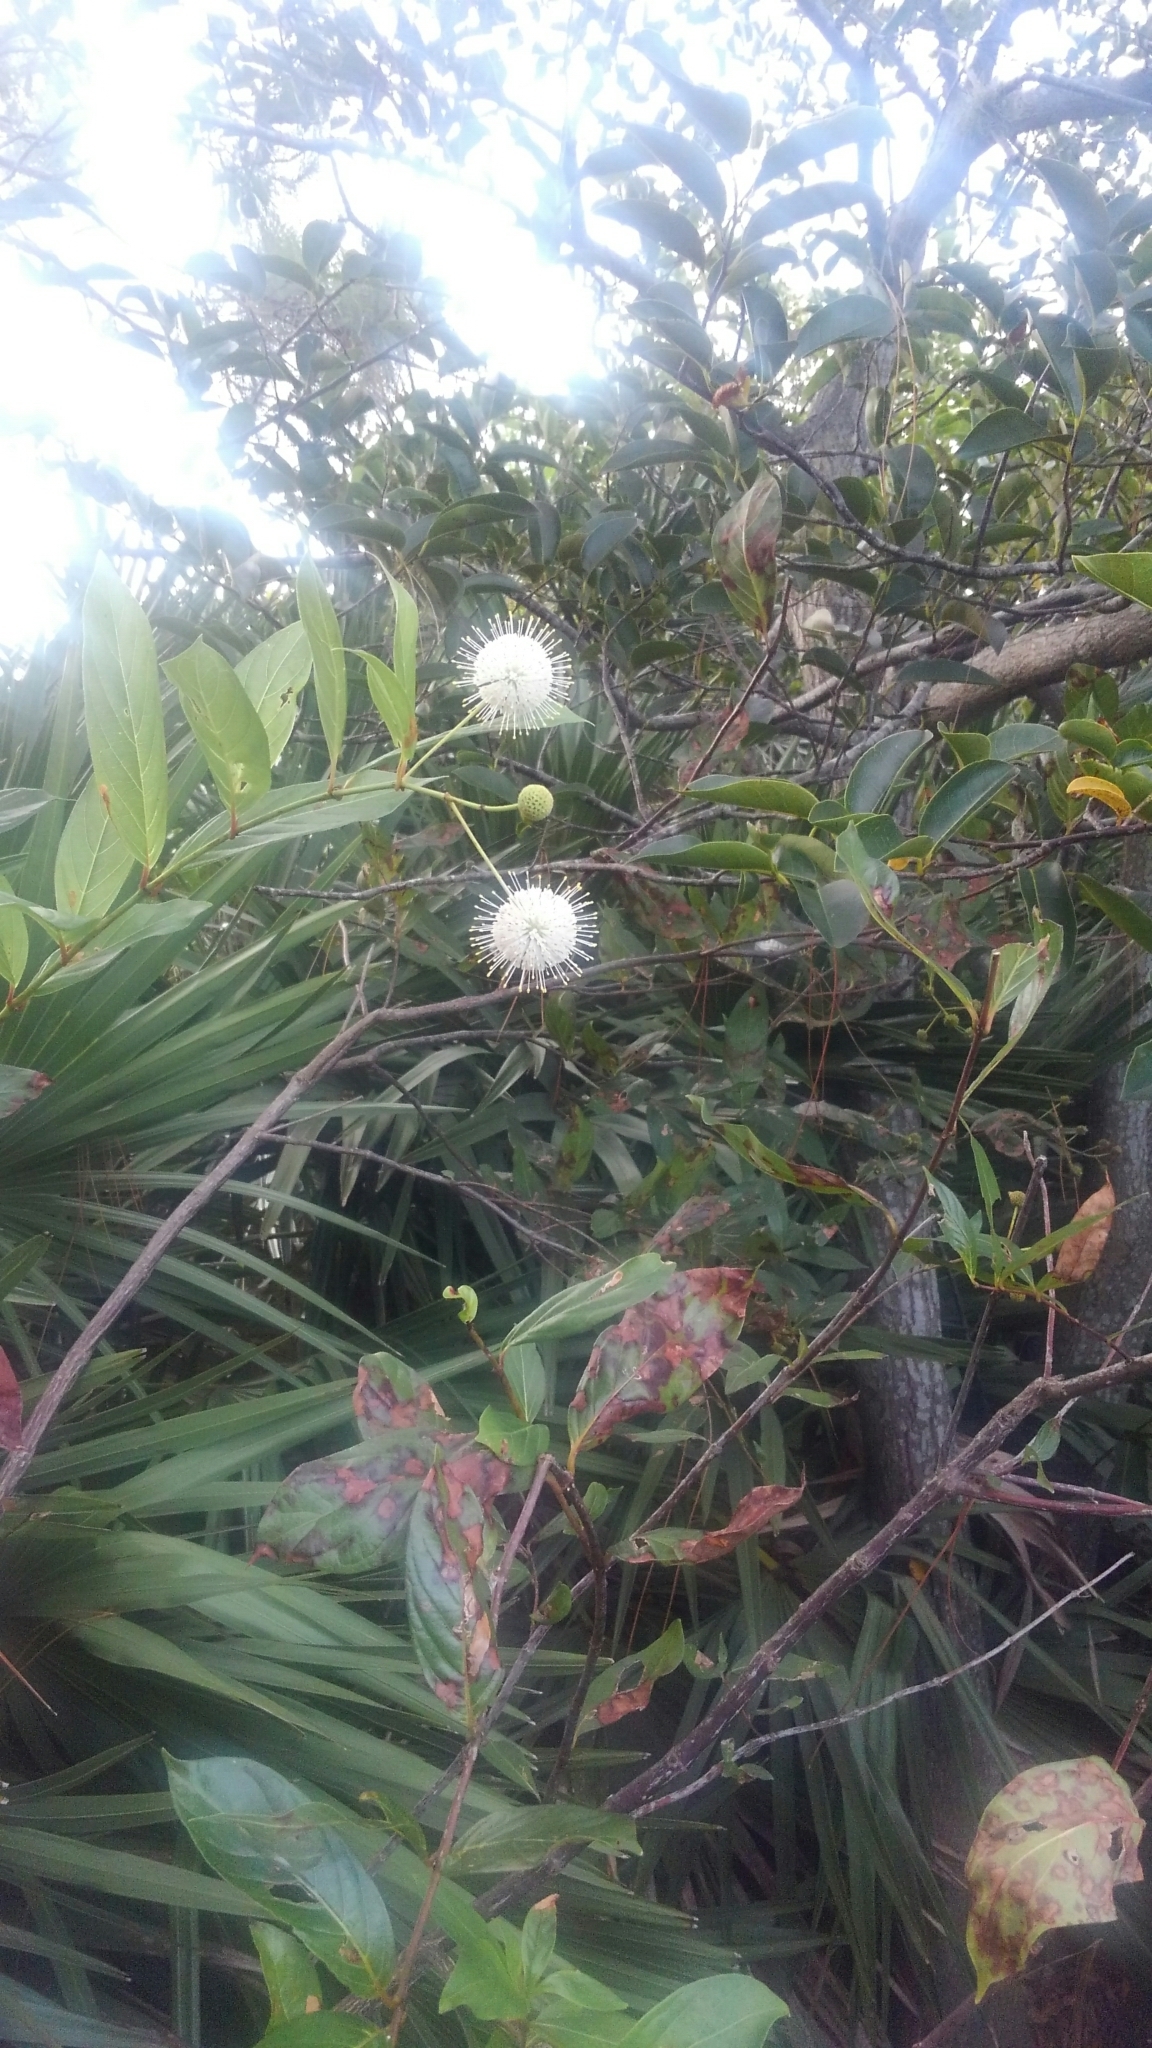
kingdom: Plantae
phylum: Tracheophyta
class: Magnoliopsida
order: Gentianales
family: Rubiaceae
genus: Cephalanthus
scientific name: Cephalanthus occidentalis
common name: Button-willow
